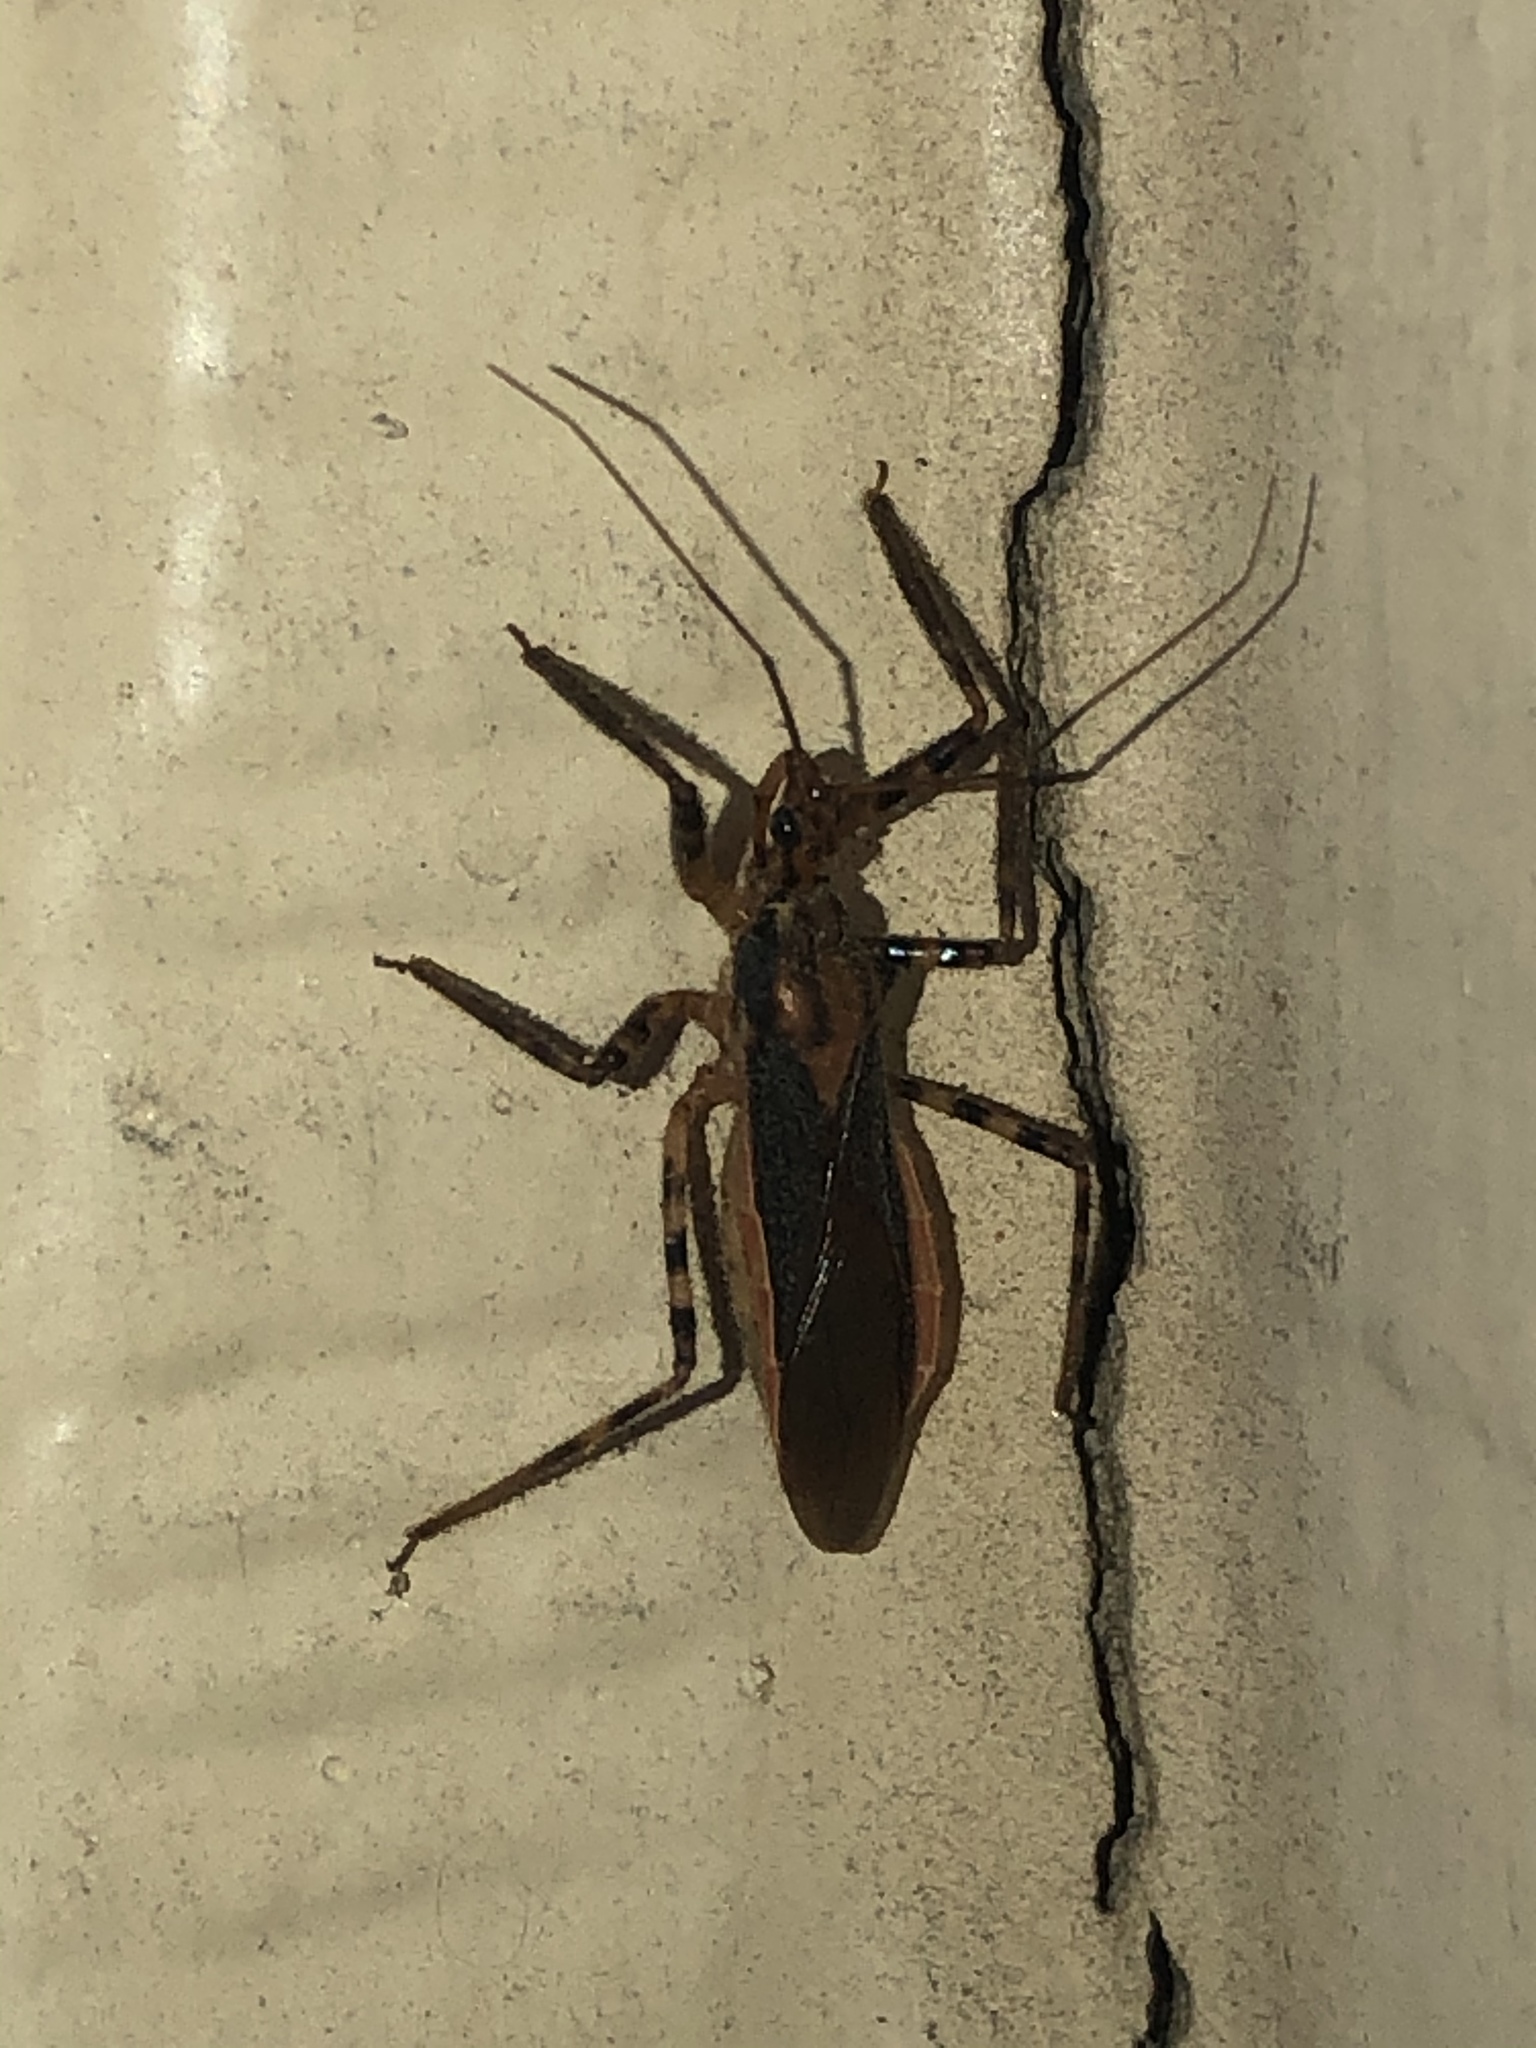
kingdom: Animalia
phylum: Arthropoda
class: Insecta
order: Hemiptera
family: Reduviidae
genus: Castolus
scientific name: Castolus ferox
